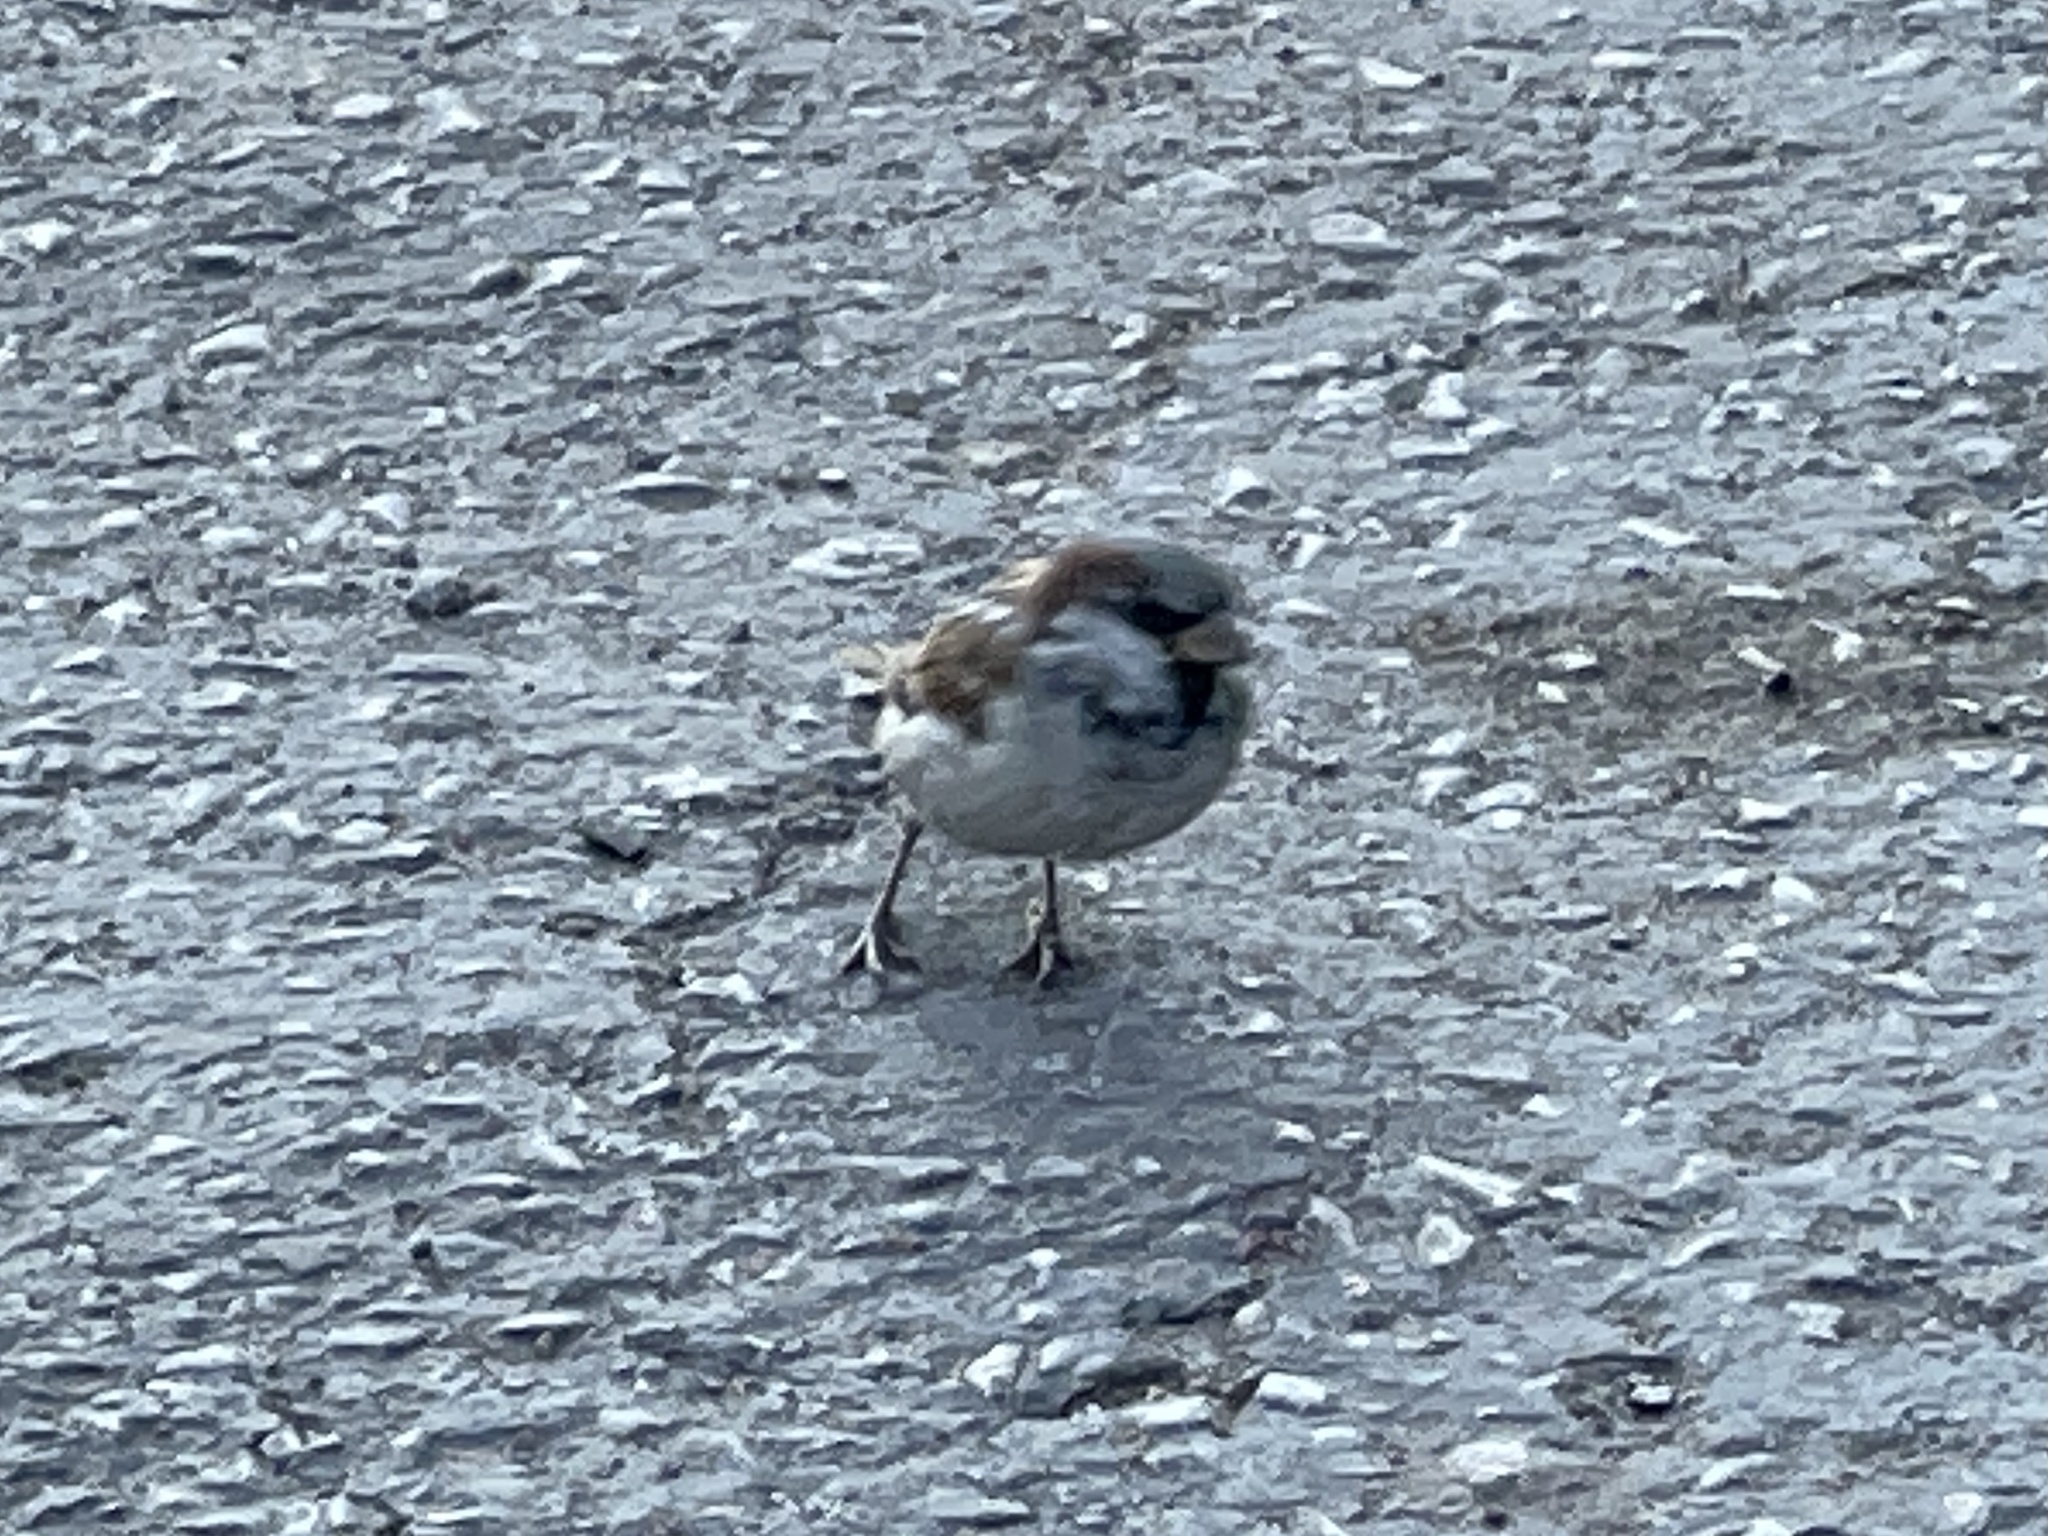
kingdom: Animalia
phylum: Chordata
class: Aves
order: Passeriformes
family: Passeridae
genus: Passer
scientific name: Passer domesticus
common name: House sparrow
